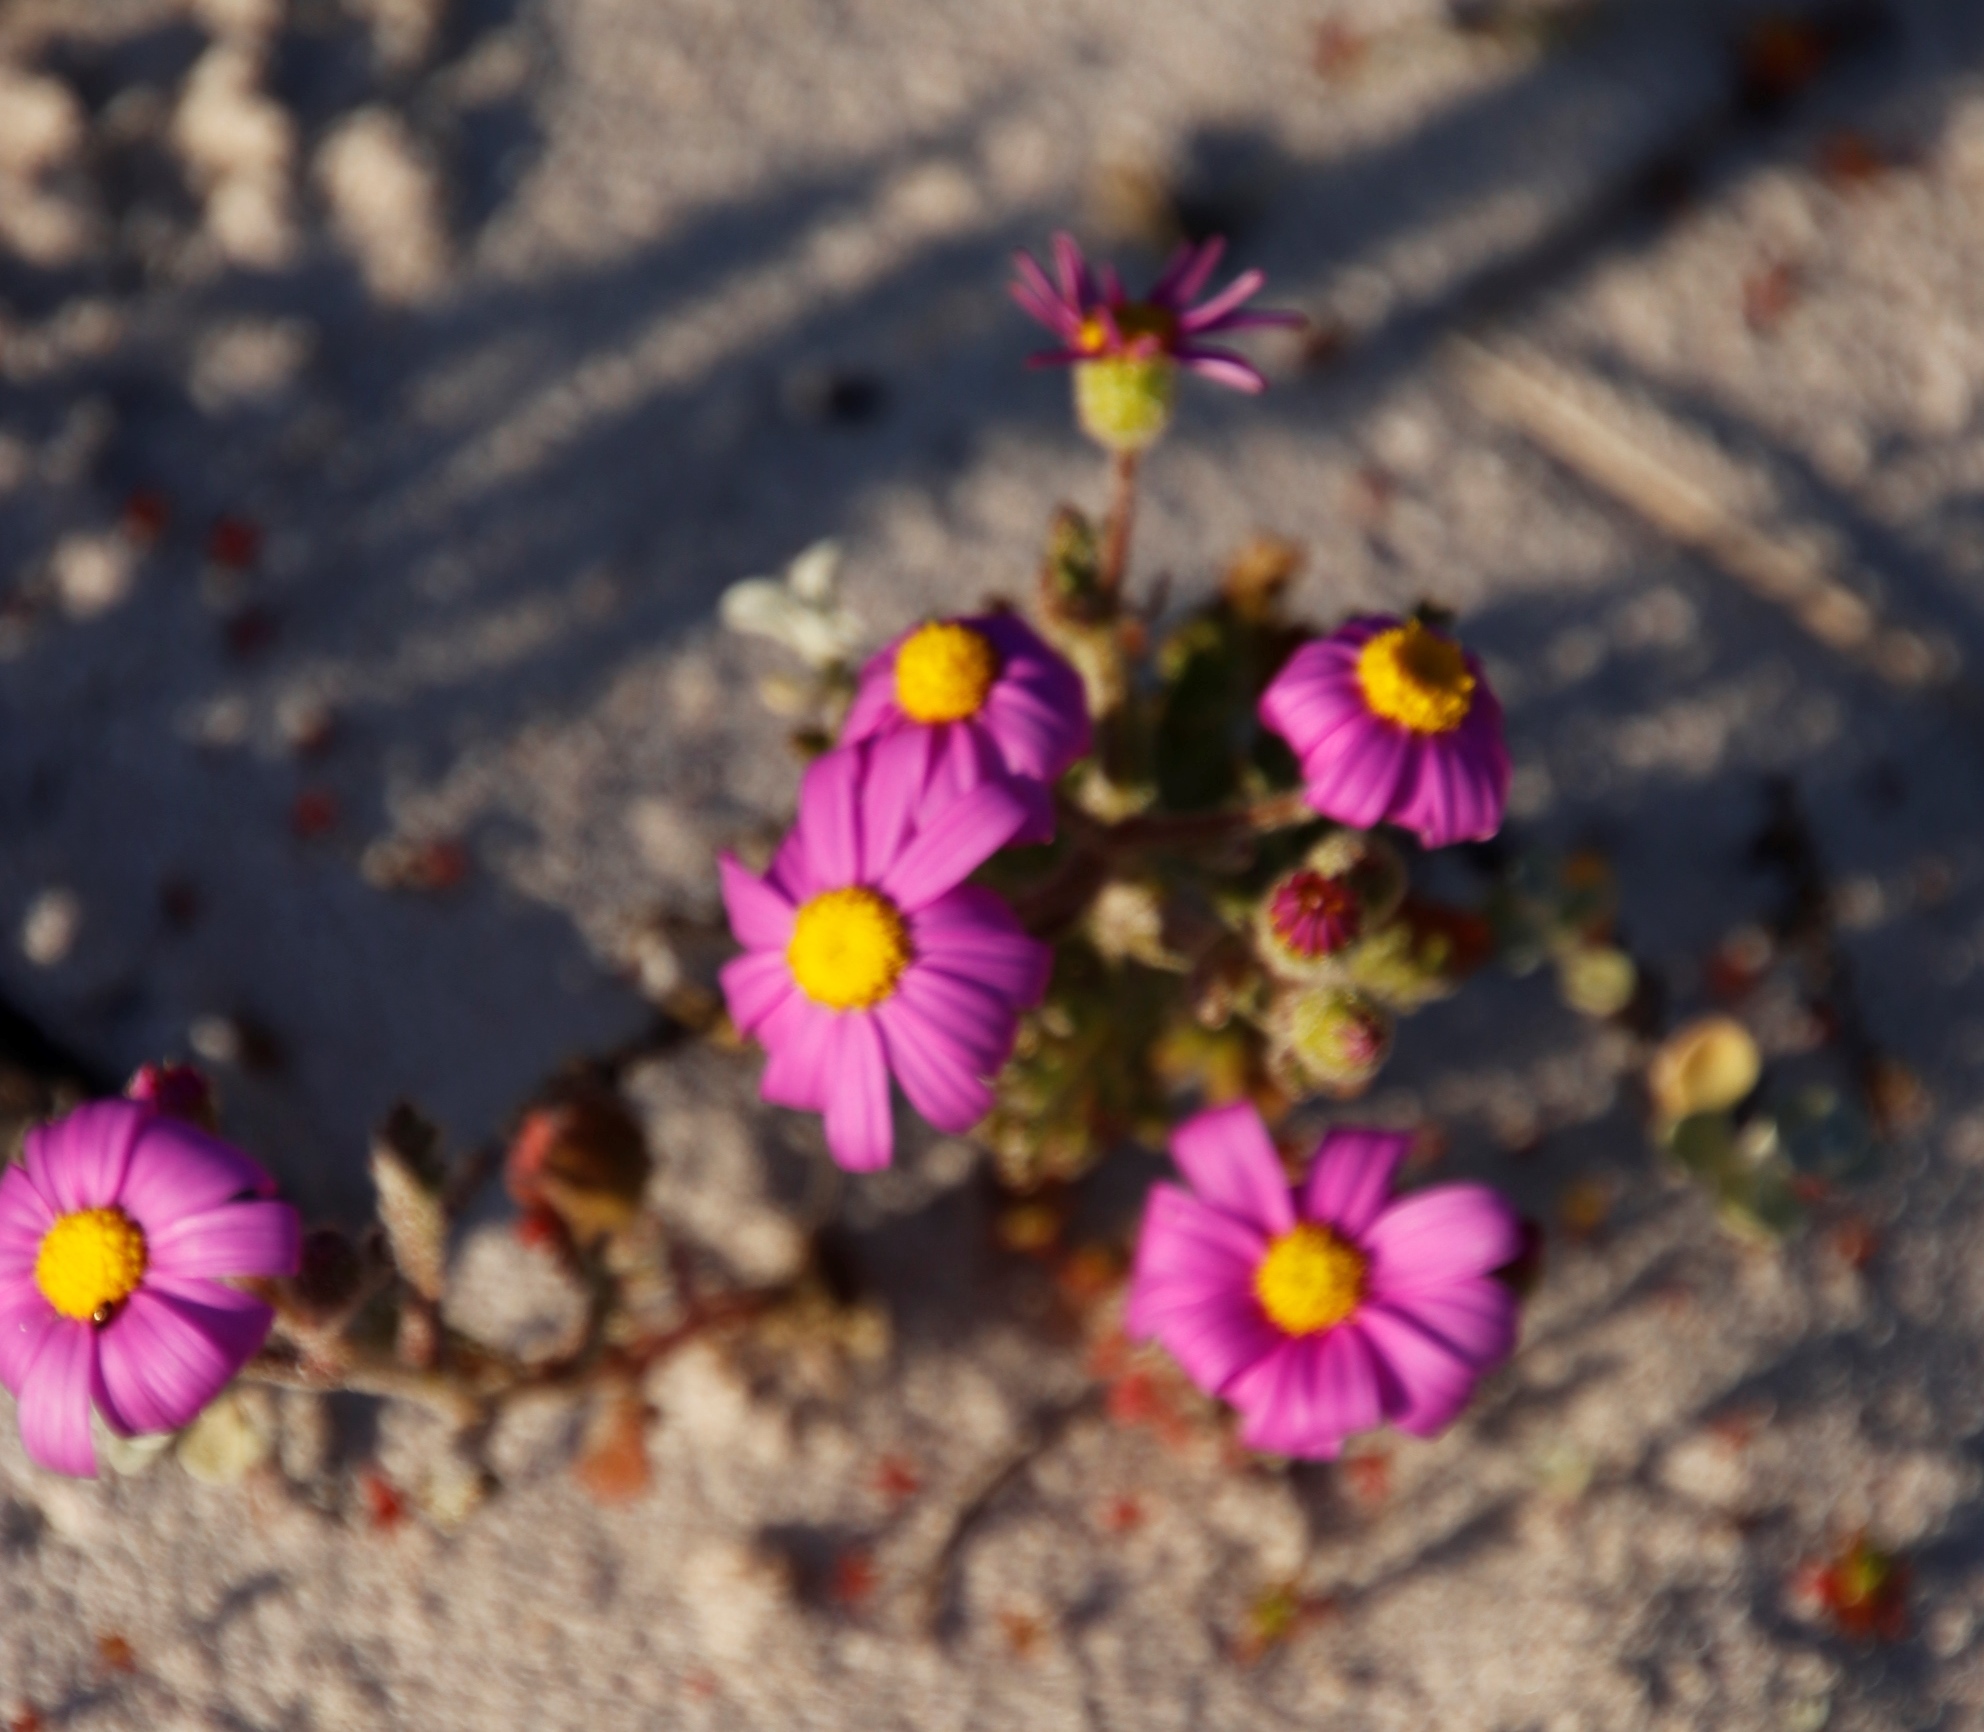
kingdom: Plantae
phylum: Tracheophyta
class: Magnoliopsida
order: Asterales
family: Asteraceae
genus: Senecio
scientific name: Senecio elegans
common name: Purple groundsel
